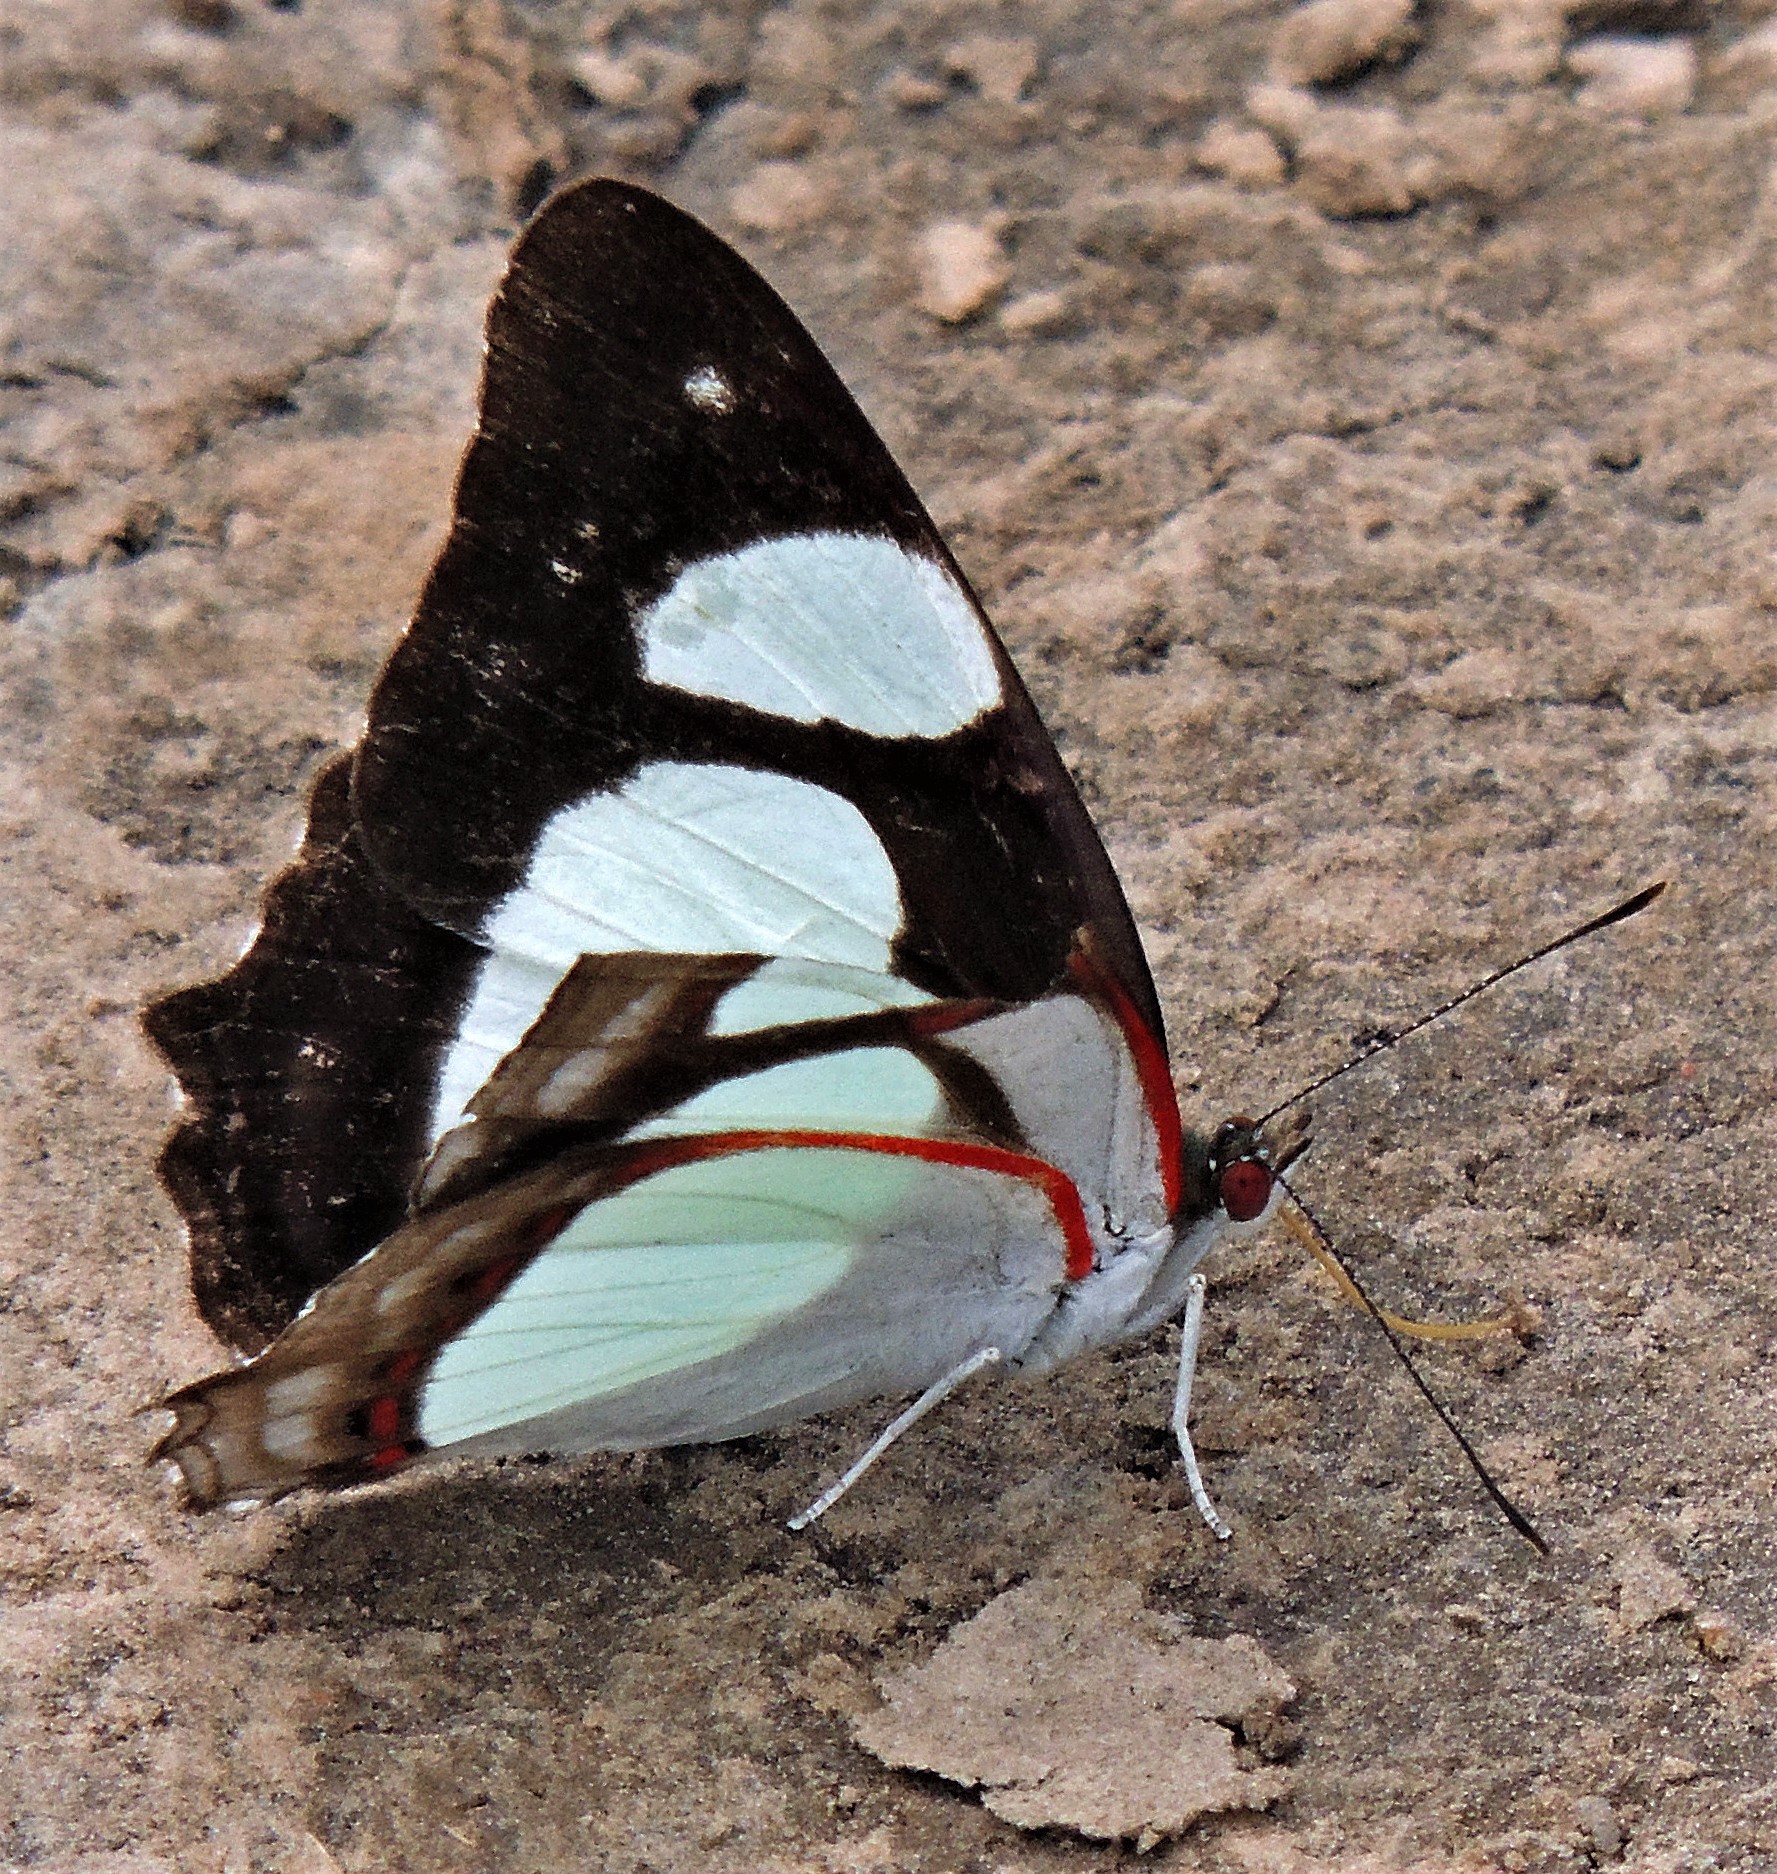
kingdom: Animalia
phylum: Arthropoda
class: Insecta
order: Lepidoptera
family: Nymphalidae
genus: Pyrrhogyra
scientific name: Pyrrhogyra neaerea
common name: Leading red-ring
